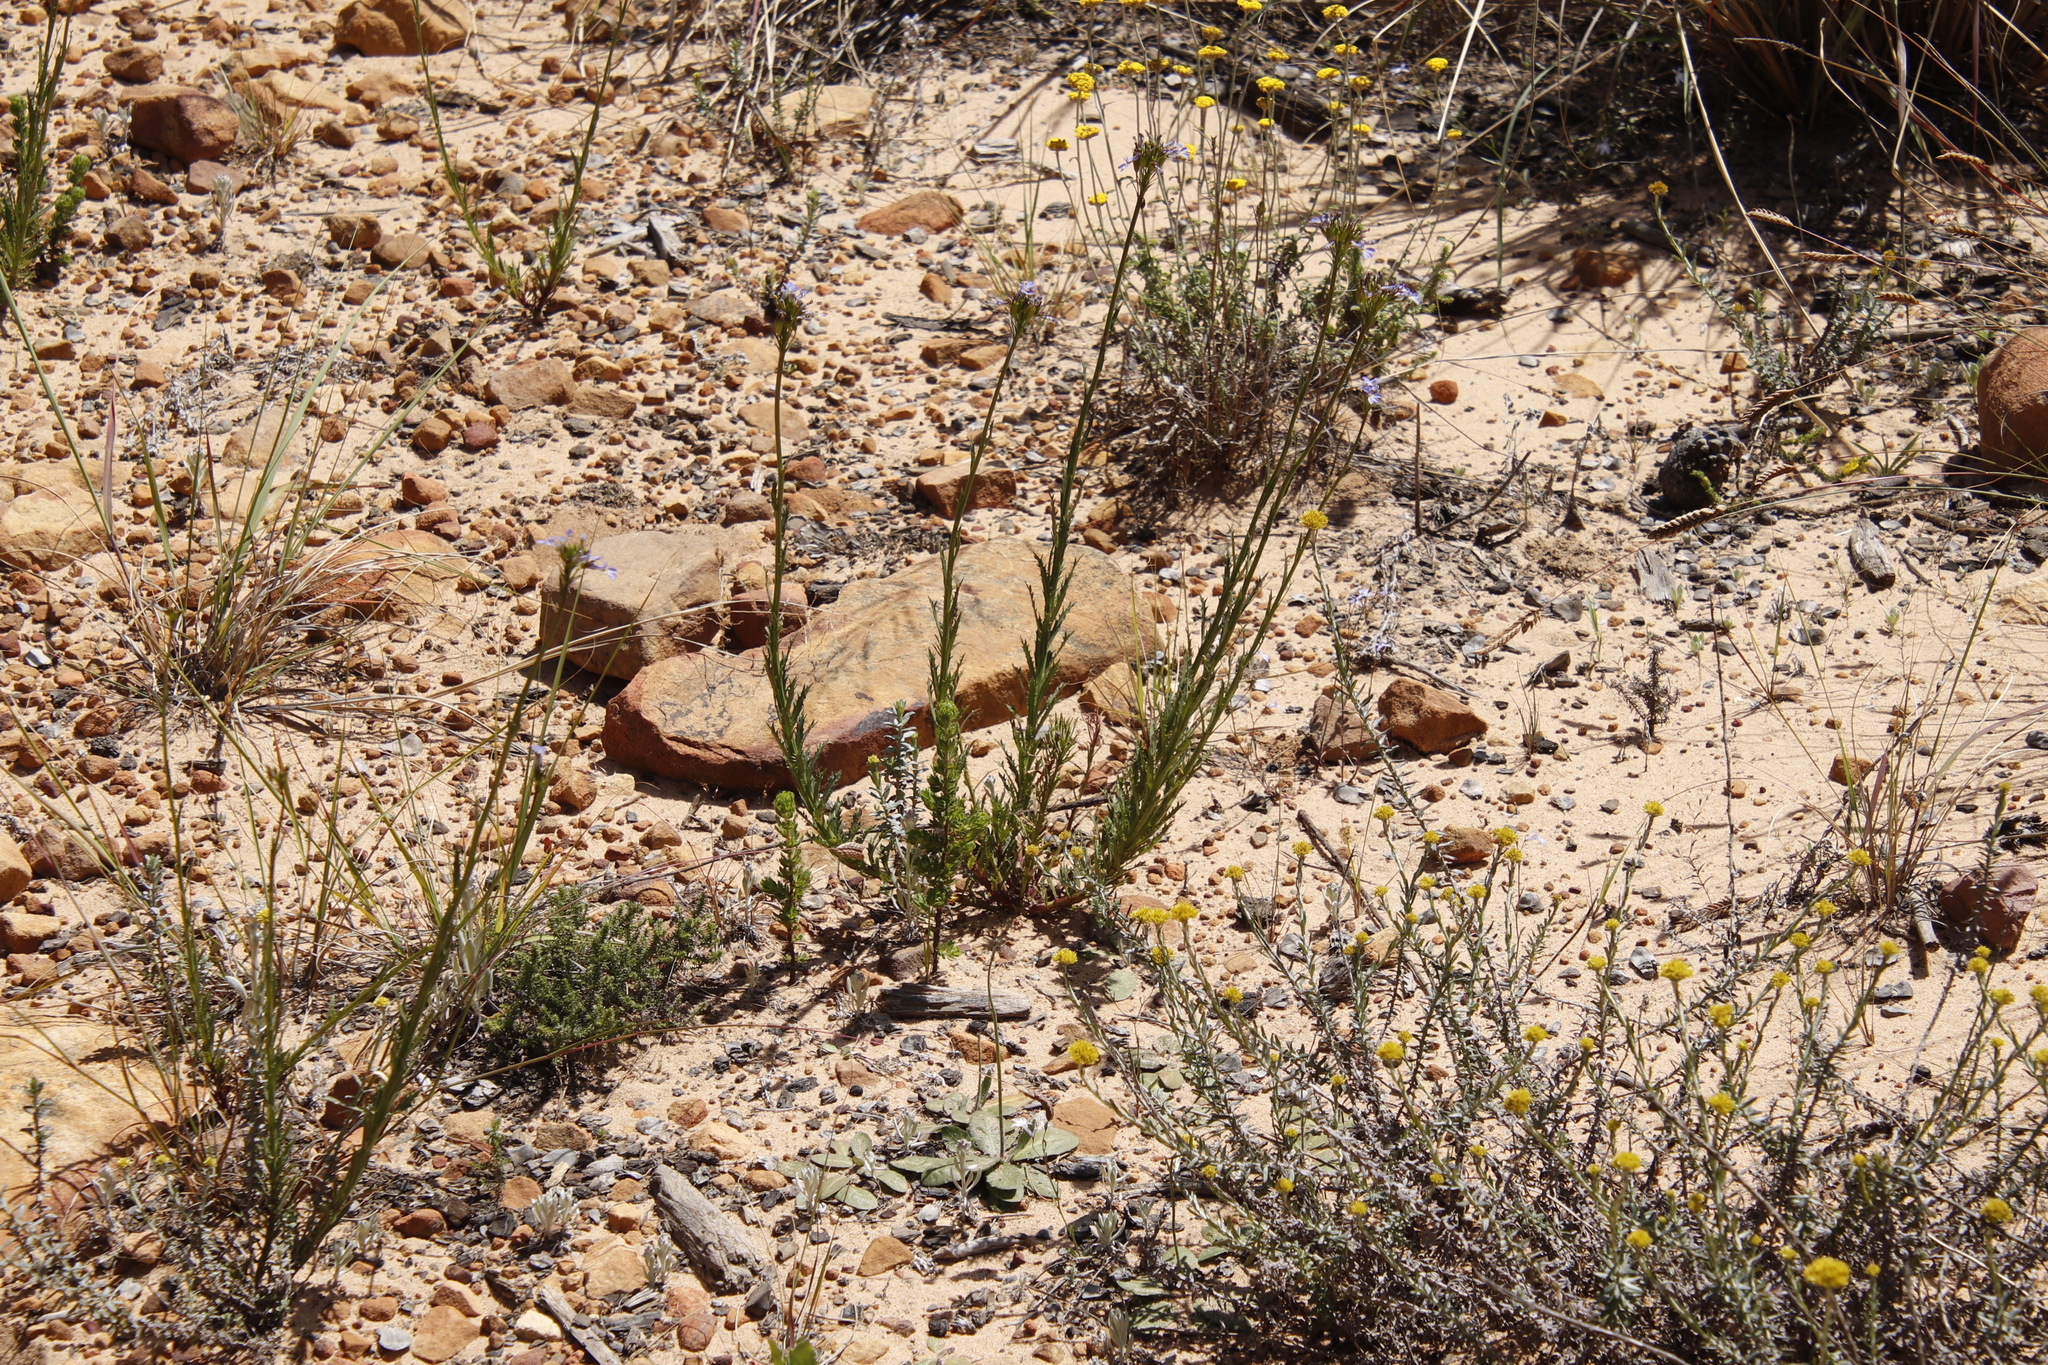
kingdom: Plantae
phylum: Tracheophyta
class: Magnoliopsida
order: Asterales
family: Campanulaceae
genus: Lobelia
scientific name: Lobelia comosa
